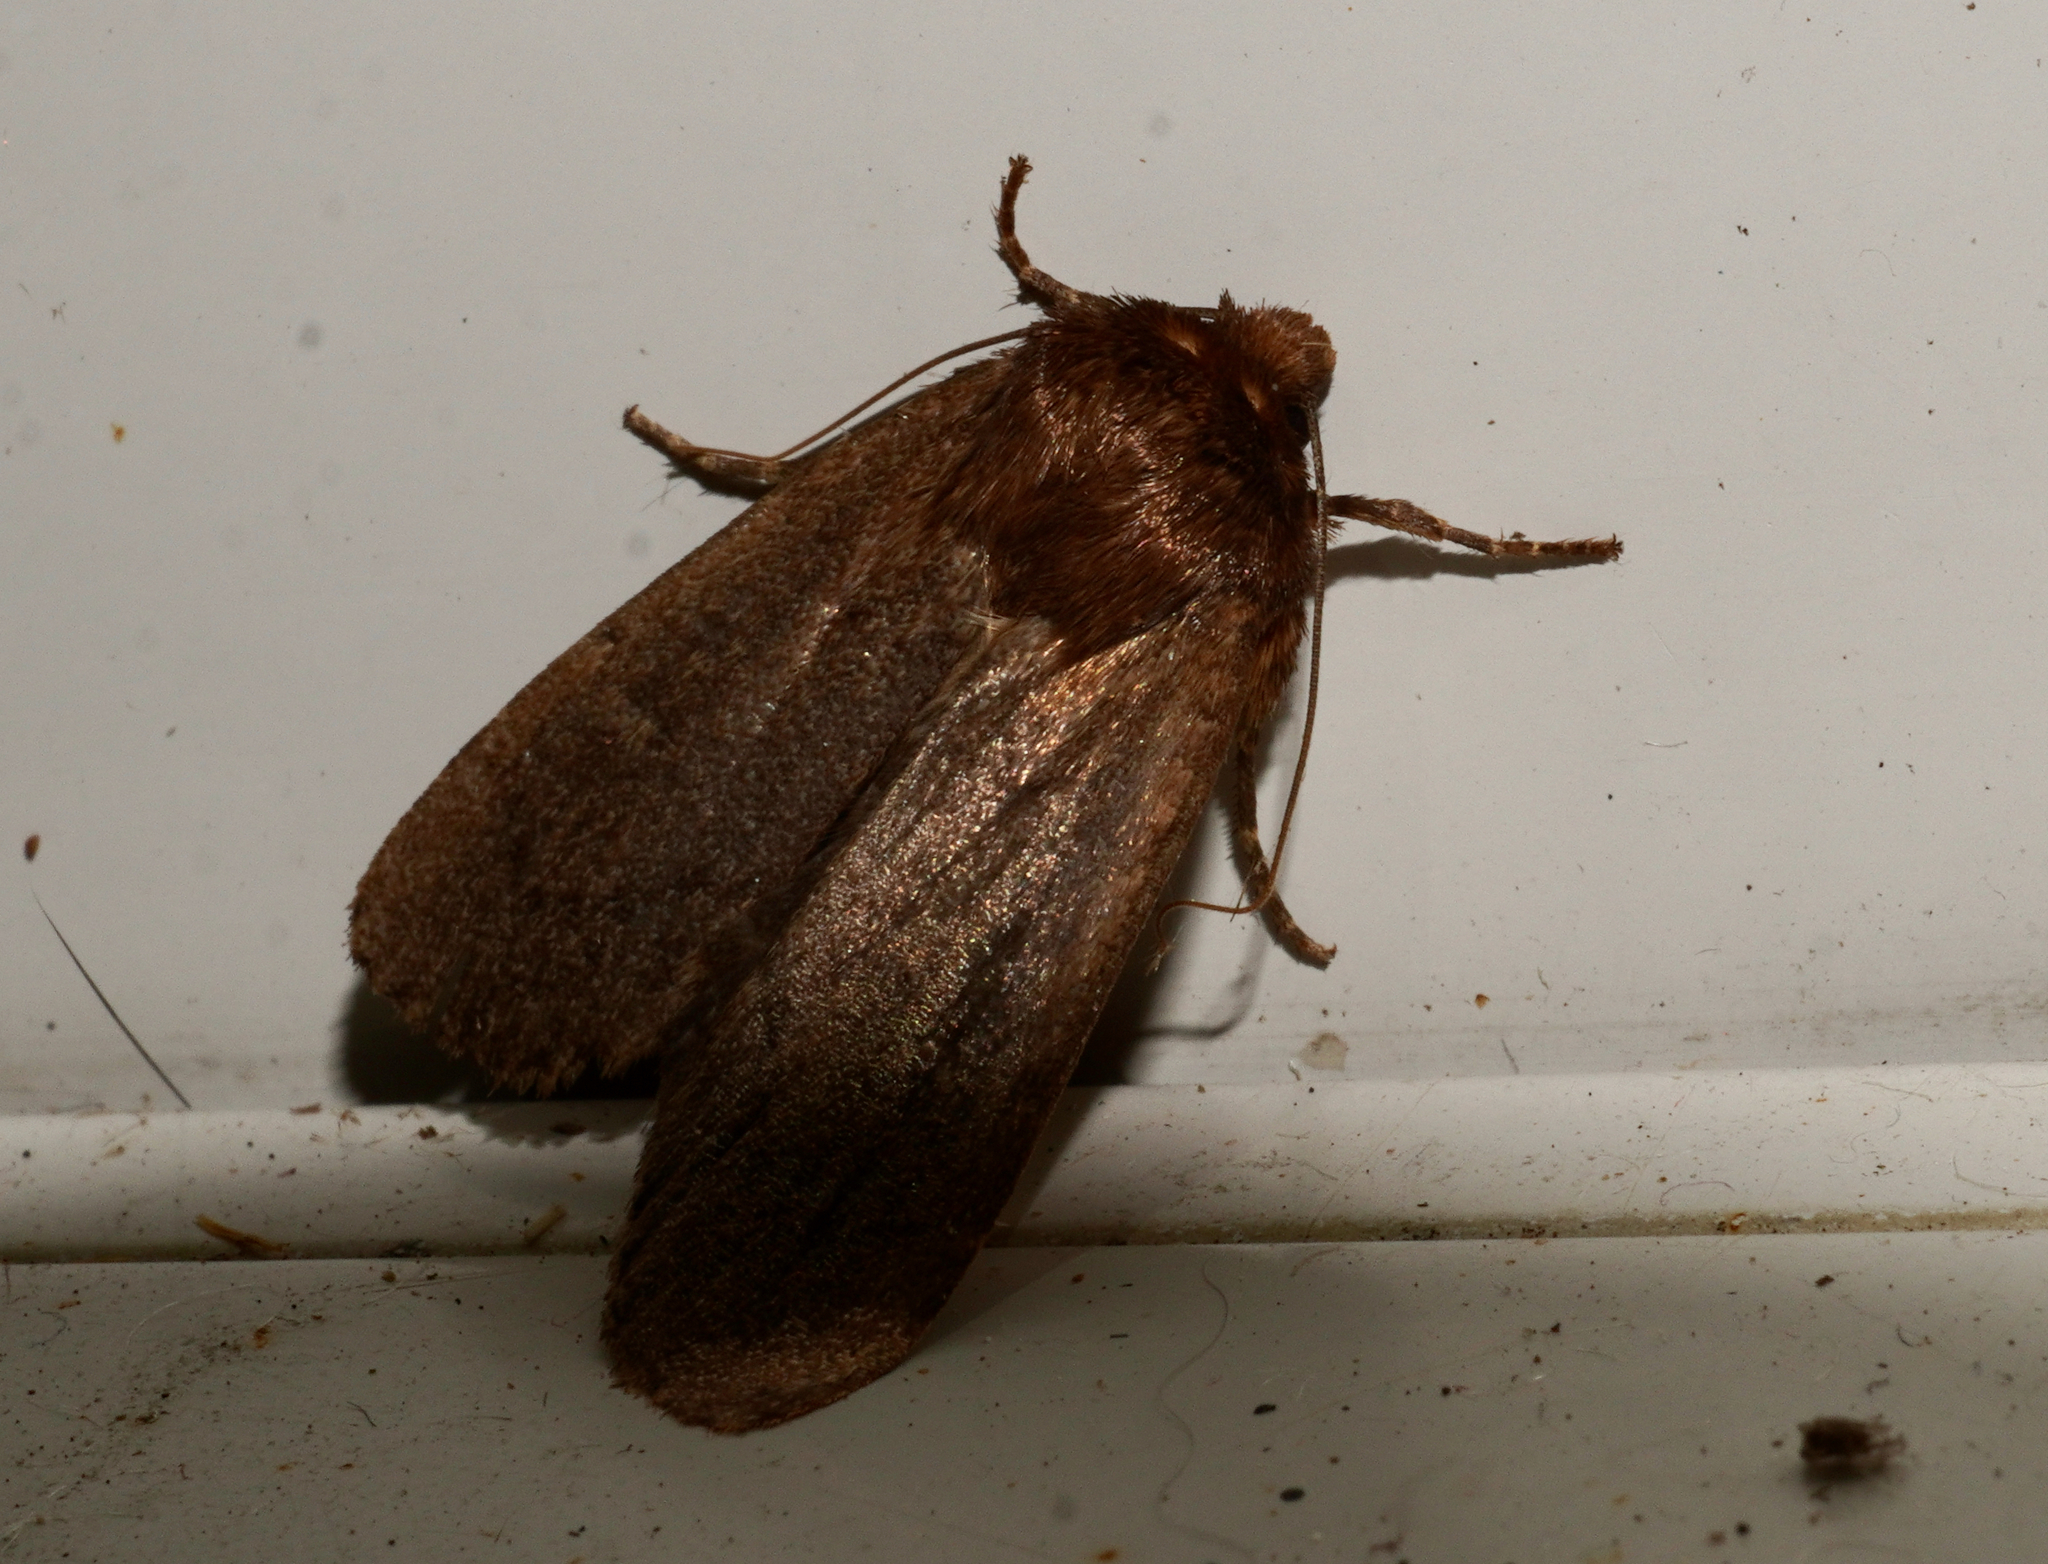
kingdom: Animalia
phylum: Arthropoda
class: Insecta
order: Lepidoptera
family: Noctuidae
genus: Bityla
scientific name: Bityla defigurata
